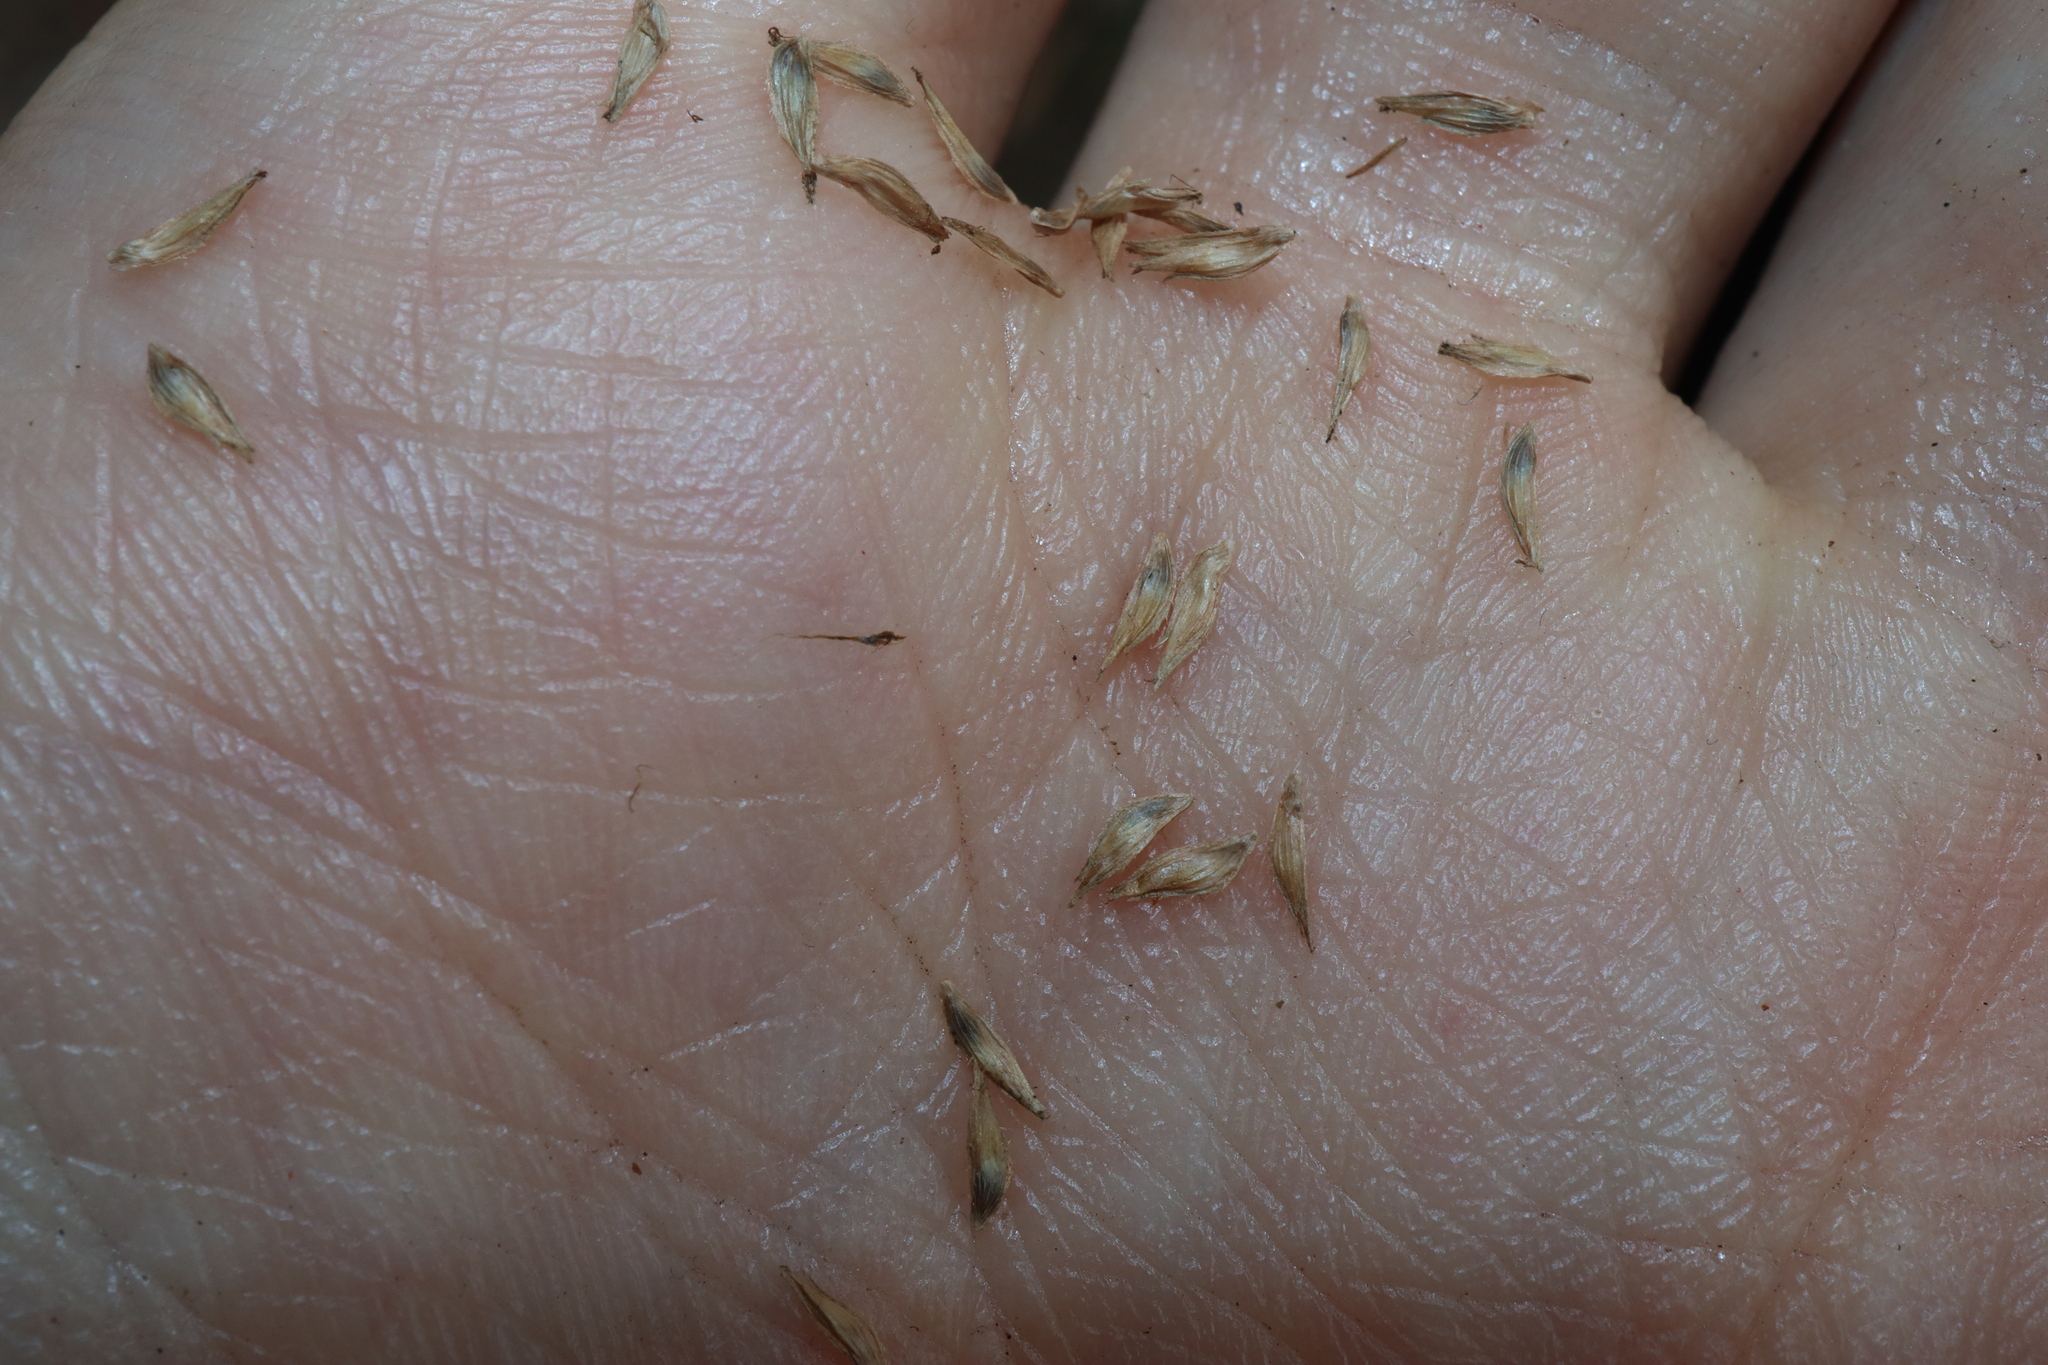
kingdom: Plantae
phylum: Tracheophyta
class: Liliopsida
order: Poales
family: Cyperaceae
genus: Cyperus
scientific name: Cyperus aromaticus
